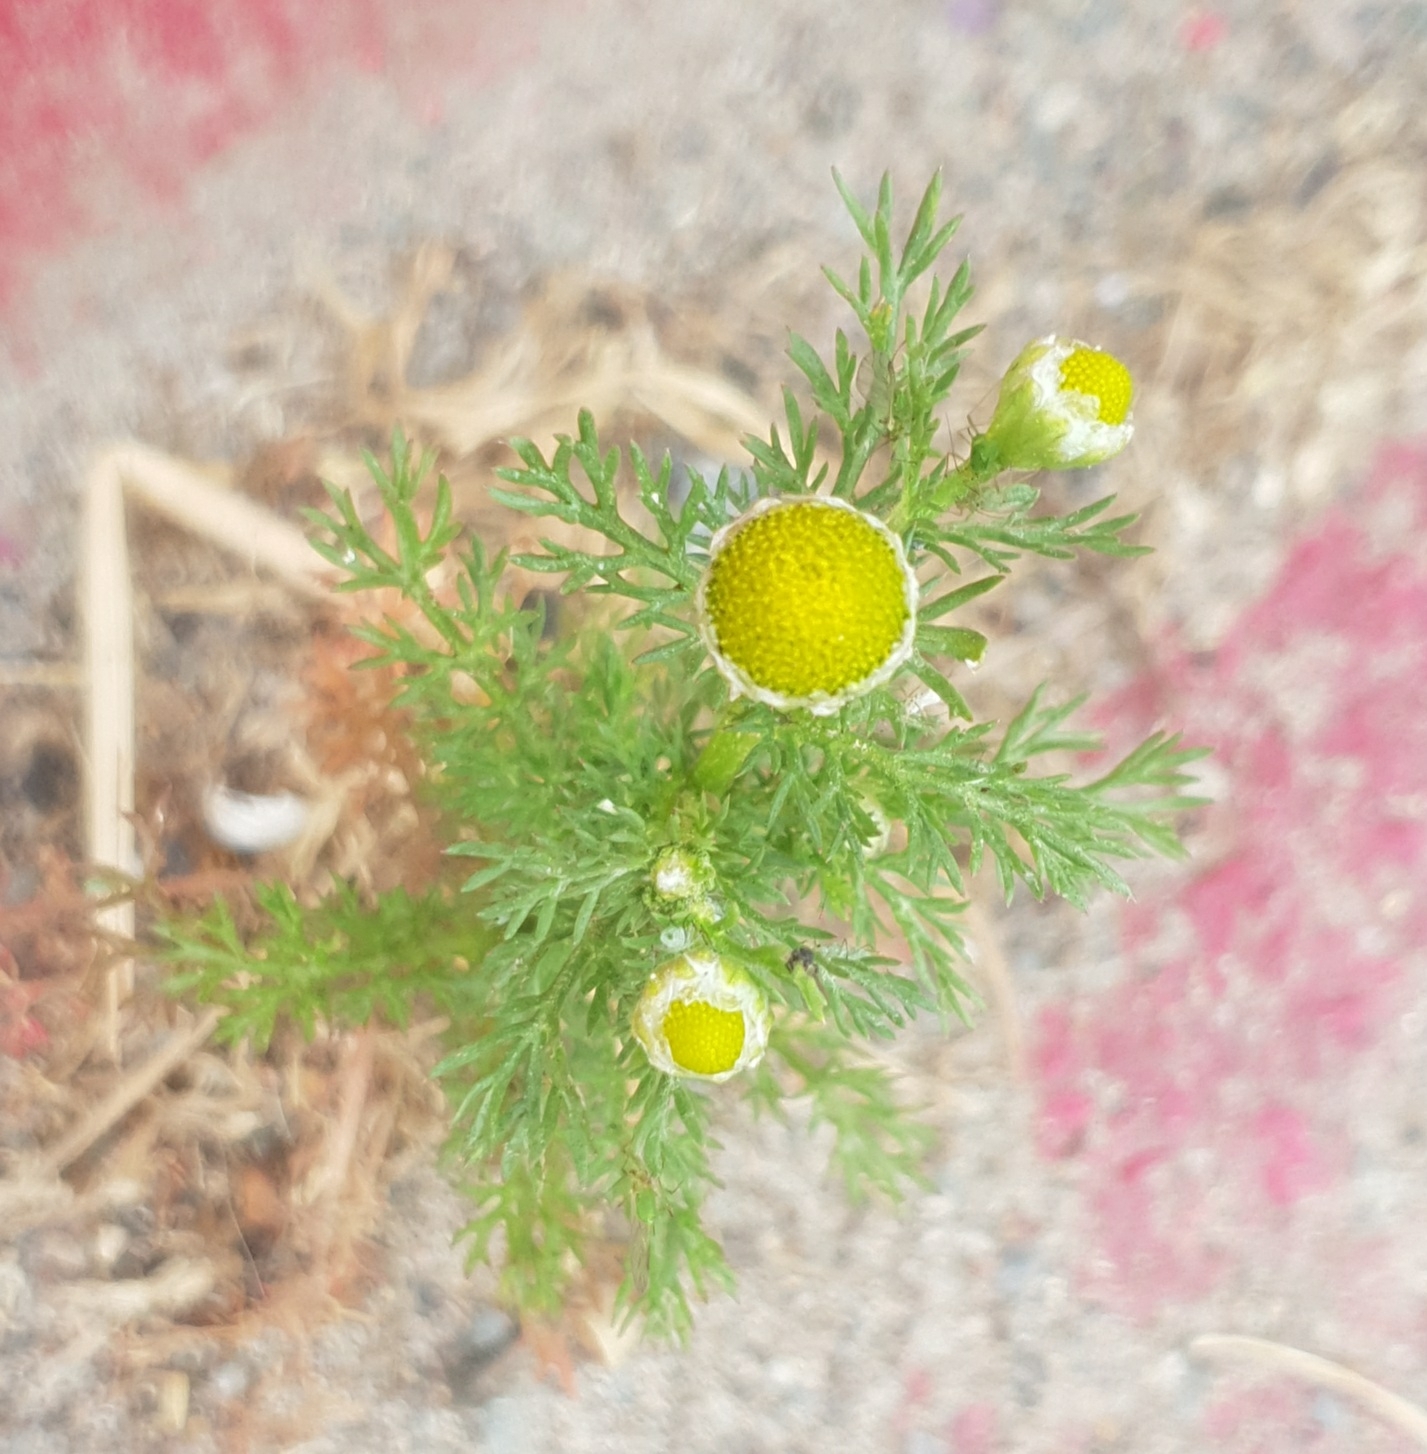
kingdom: Plantae
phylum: Tracheophyta
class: Magnoliopsida
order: Asterales
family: Asteraceae
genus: Matricaria
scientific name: Matricaria discoidea
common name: Disc mayweed
